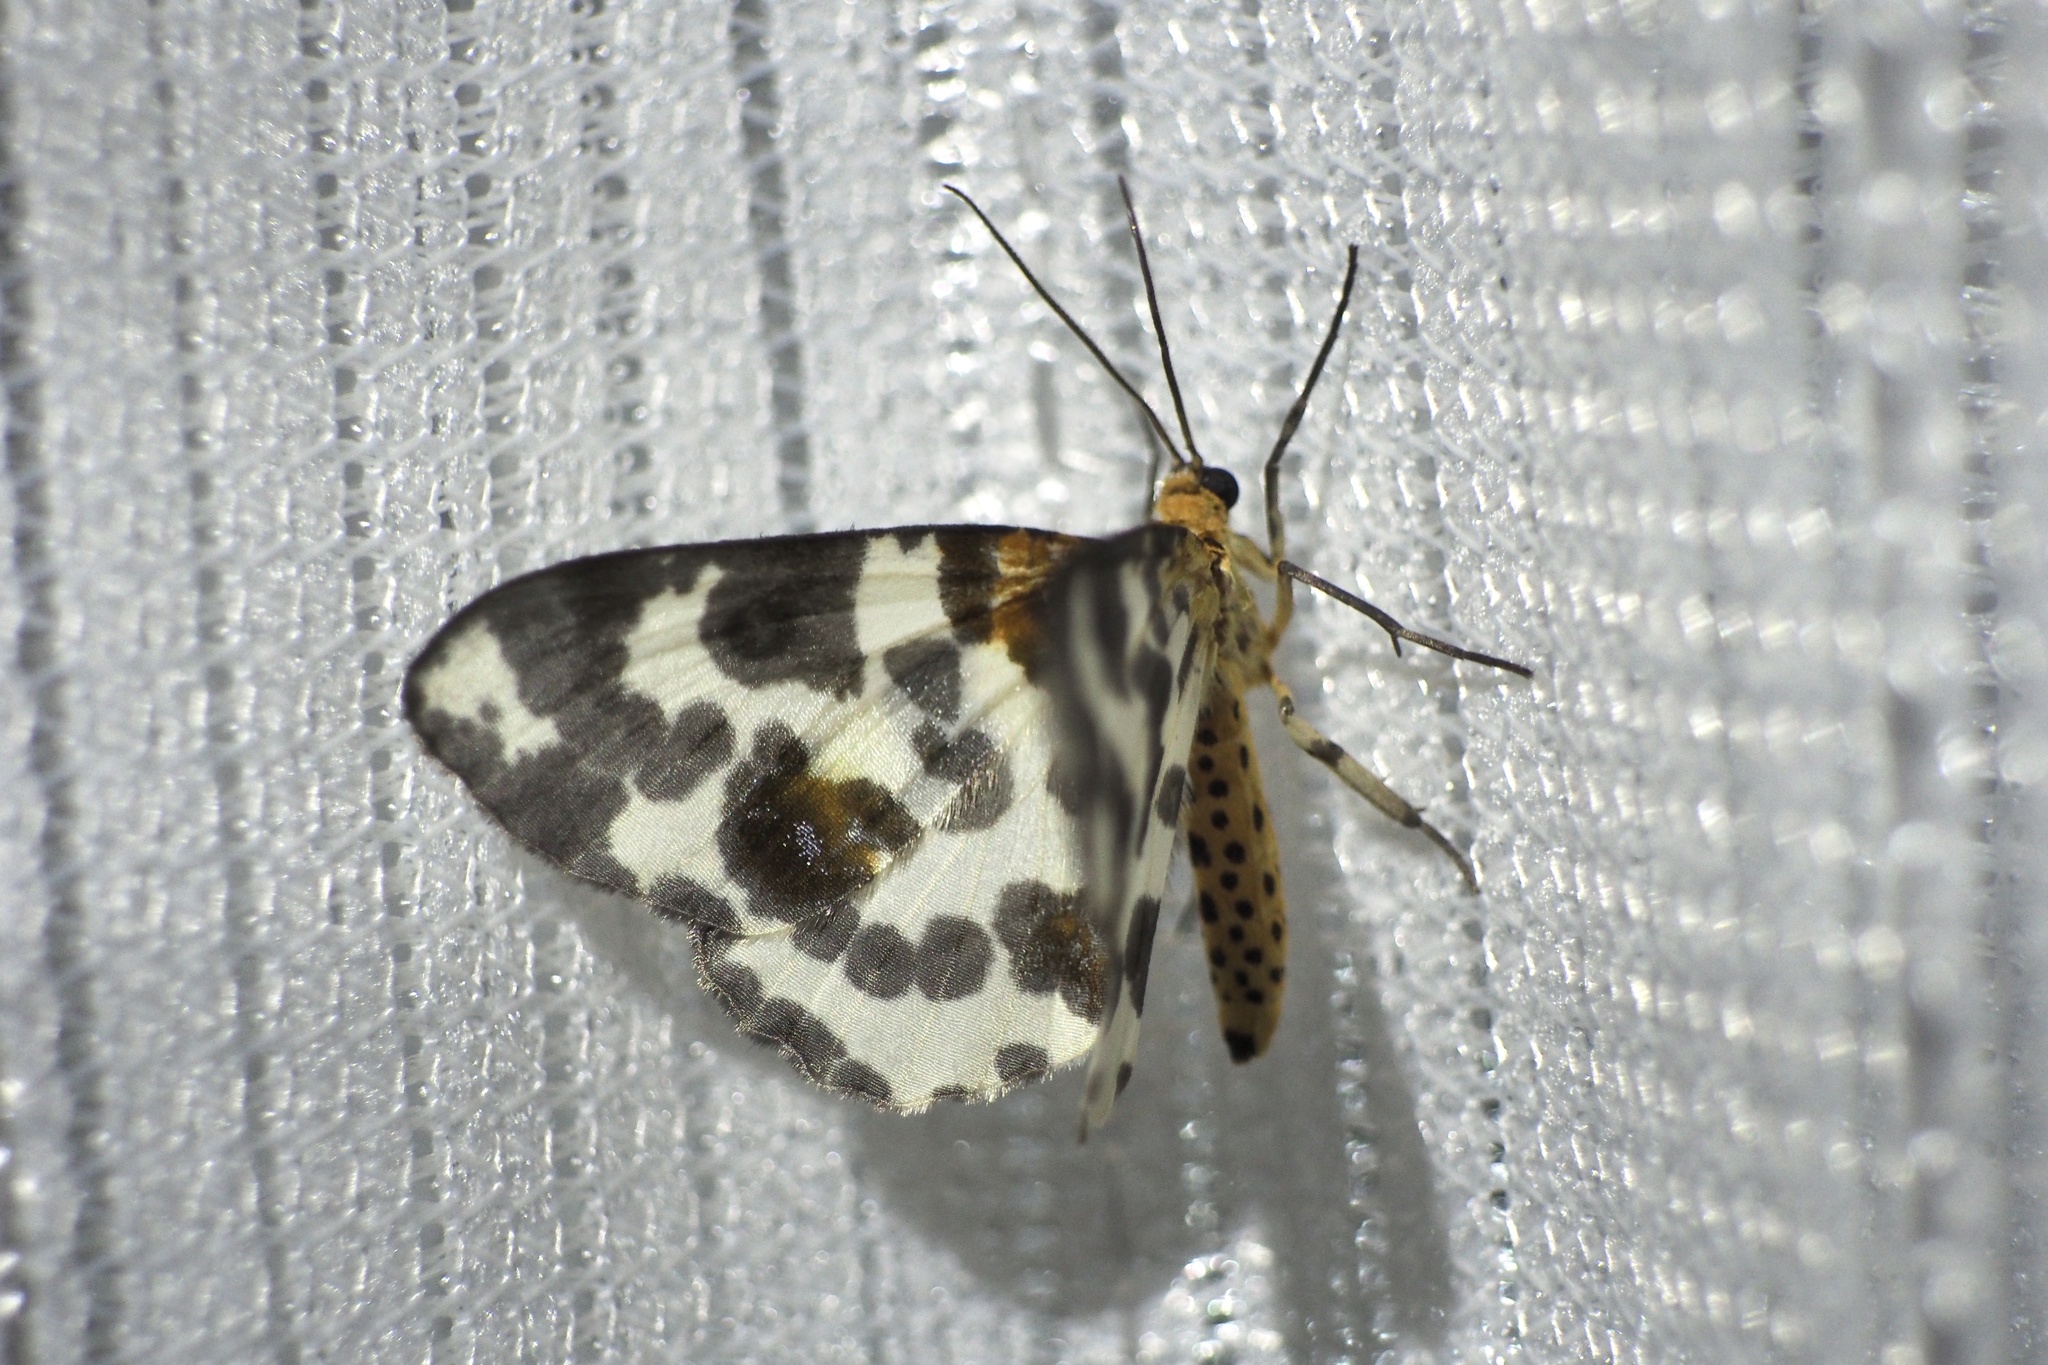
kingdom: Animalia
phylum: Arthropoda
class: Insecta
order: Lepidoptera
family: Geometridae
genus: Abraxas
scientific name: Abraxas niphonibia
